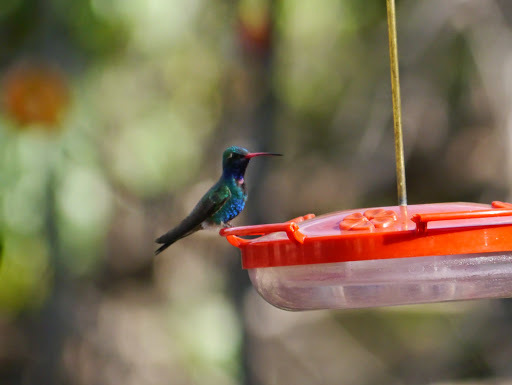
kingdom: Animalia
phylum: Chordata
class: Aves
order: Apodiformes
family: Trochilidae
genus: Cynanthus
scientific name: Cynanthus latirostris
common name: Broad-billed hummingbird
